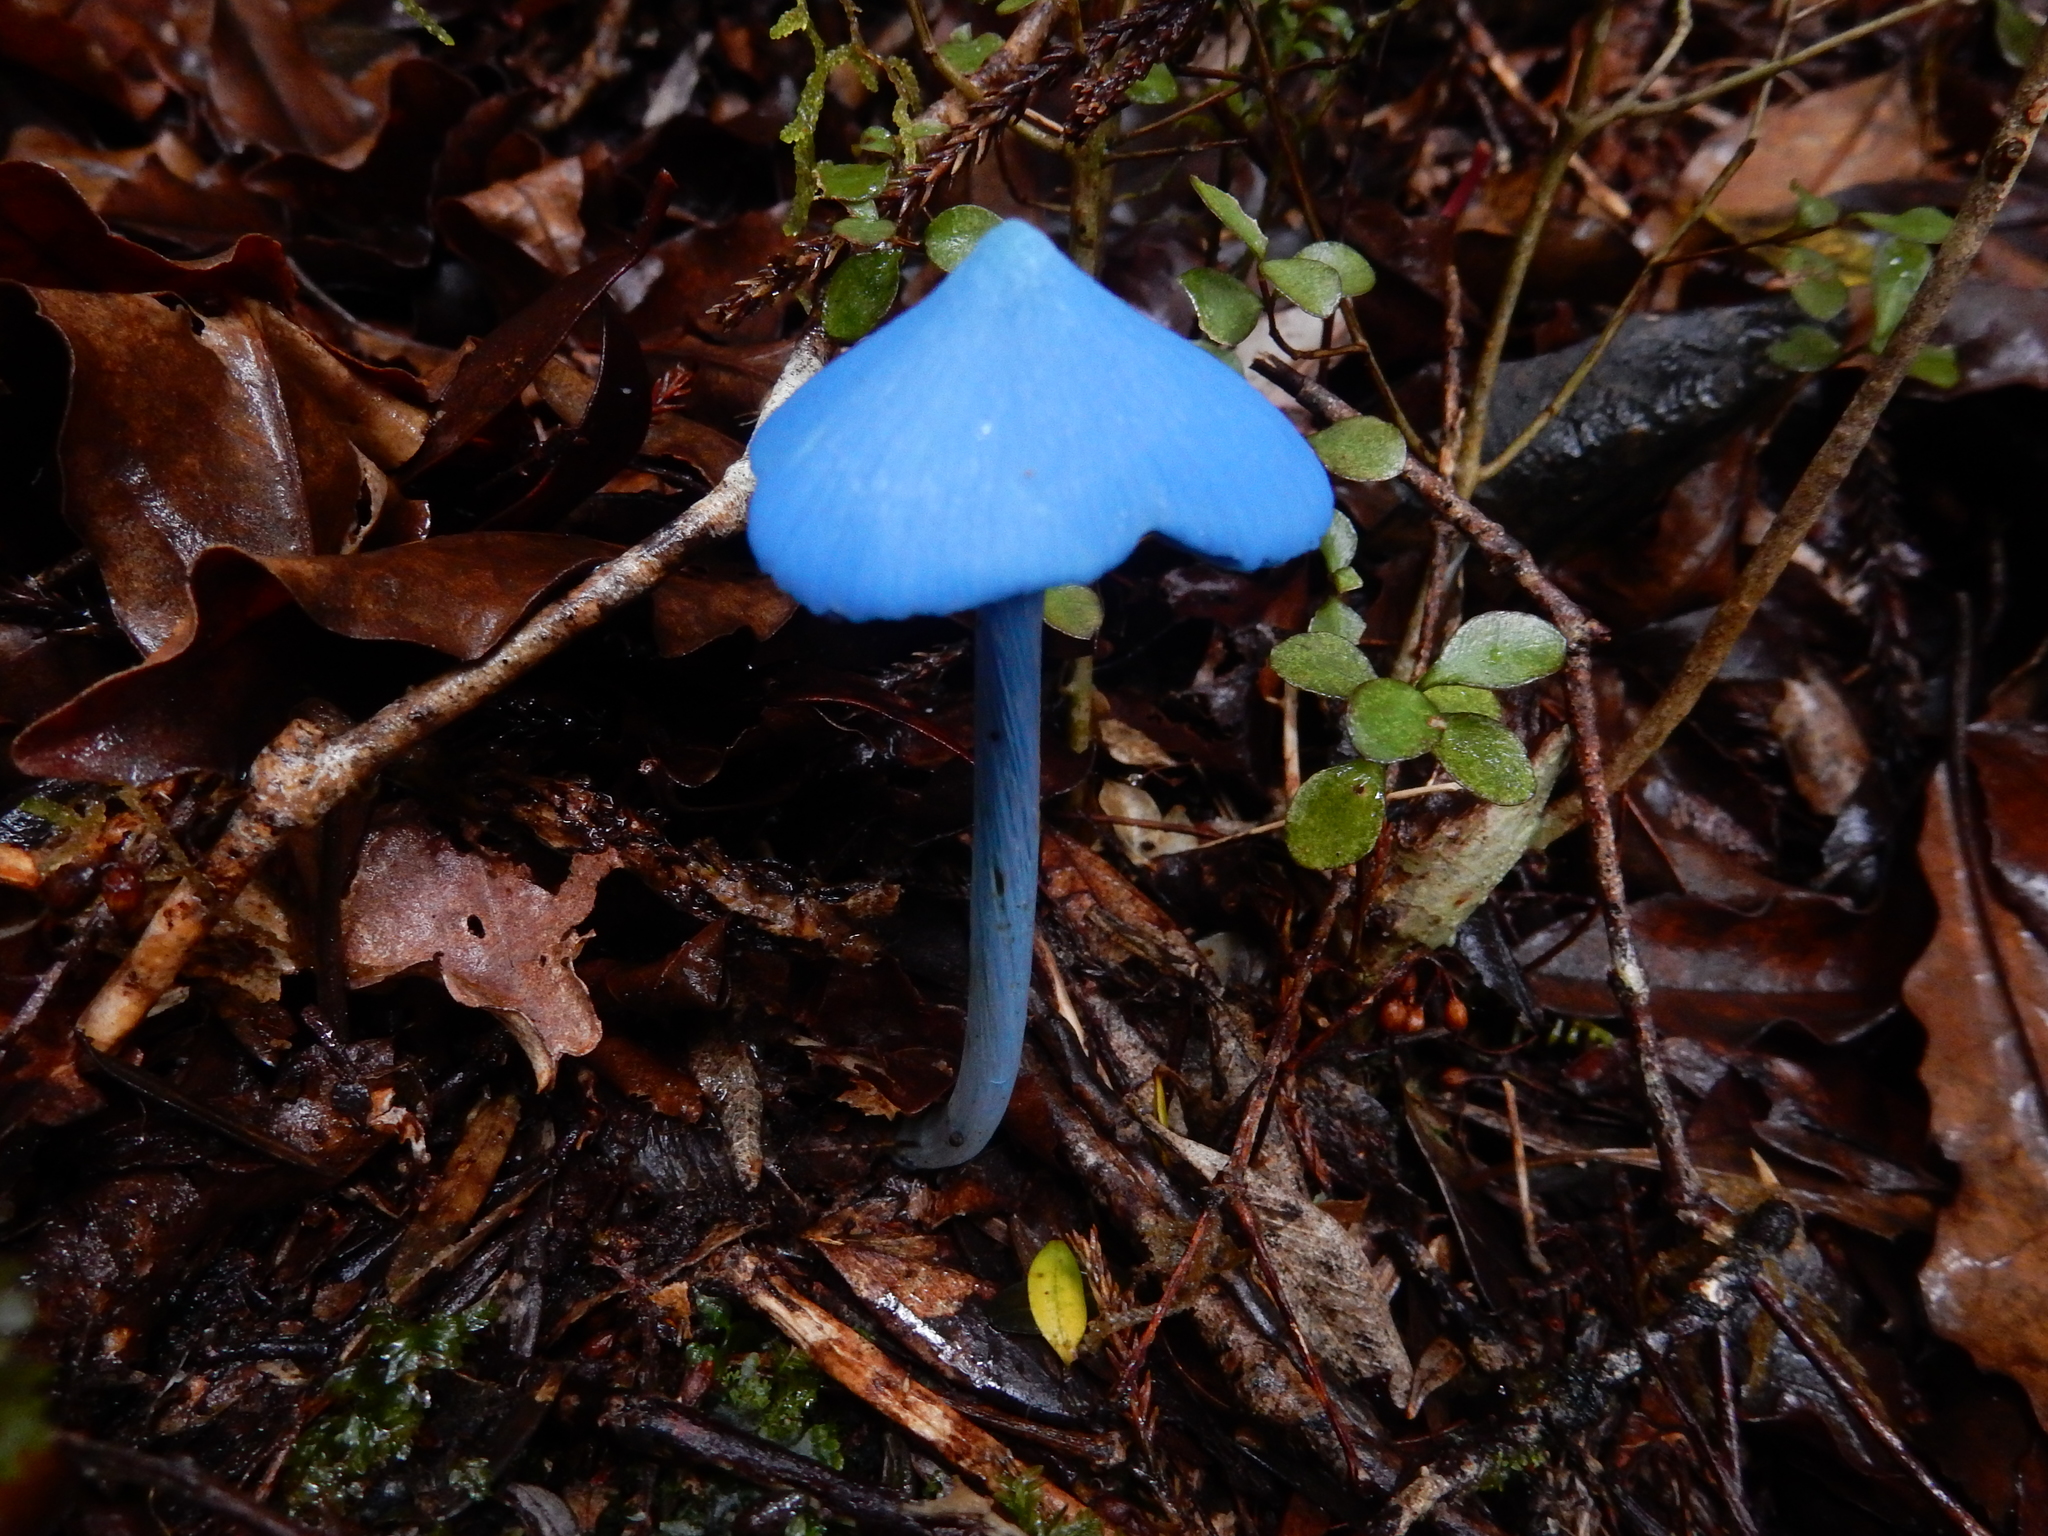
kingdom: Fungi
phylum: Basidiomycota
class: Agaricomycetes
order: Agaricales
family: Entolomataceae
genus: Entoloma
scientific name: Entoloma hochstetteri
